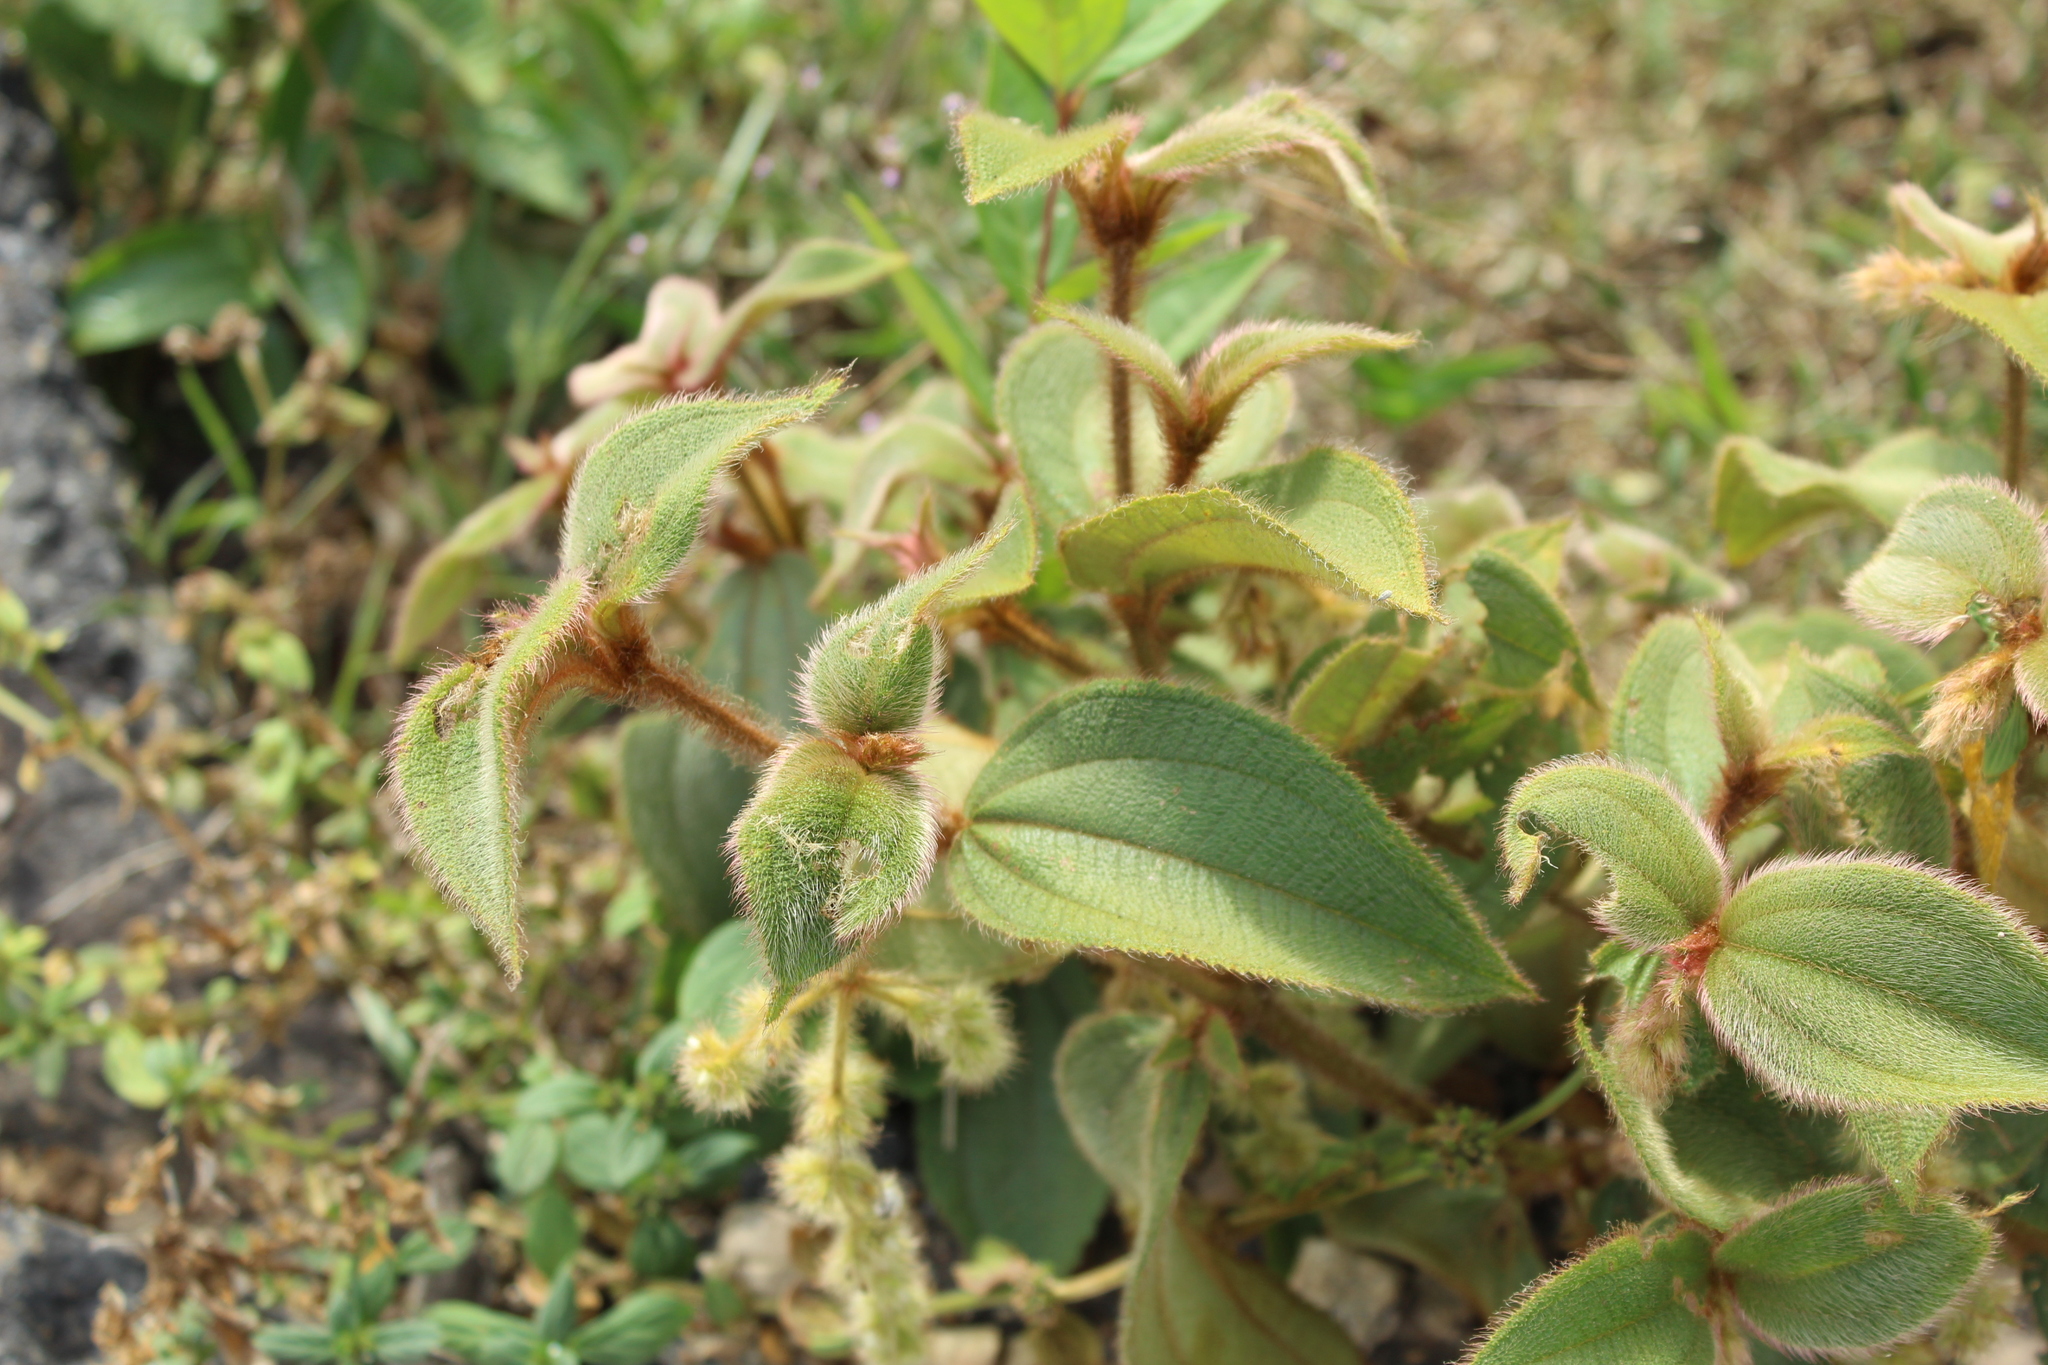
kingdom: Plantae
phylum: Tracheophyta
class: Magnoliopsida
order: Myrtales
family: Melastomataceae
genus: Miconia
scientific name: Miconia dependens
